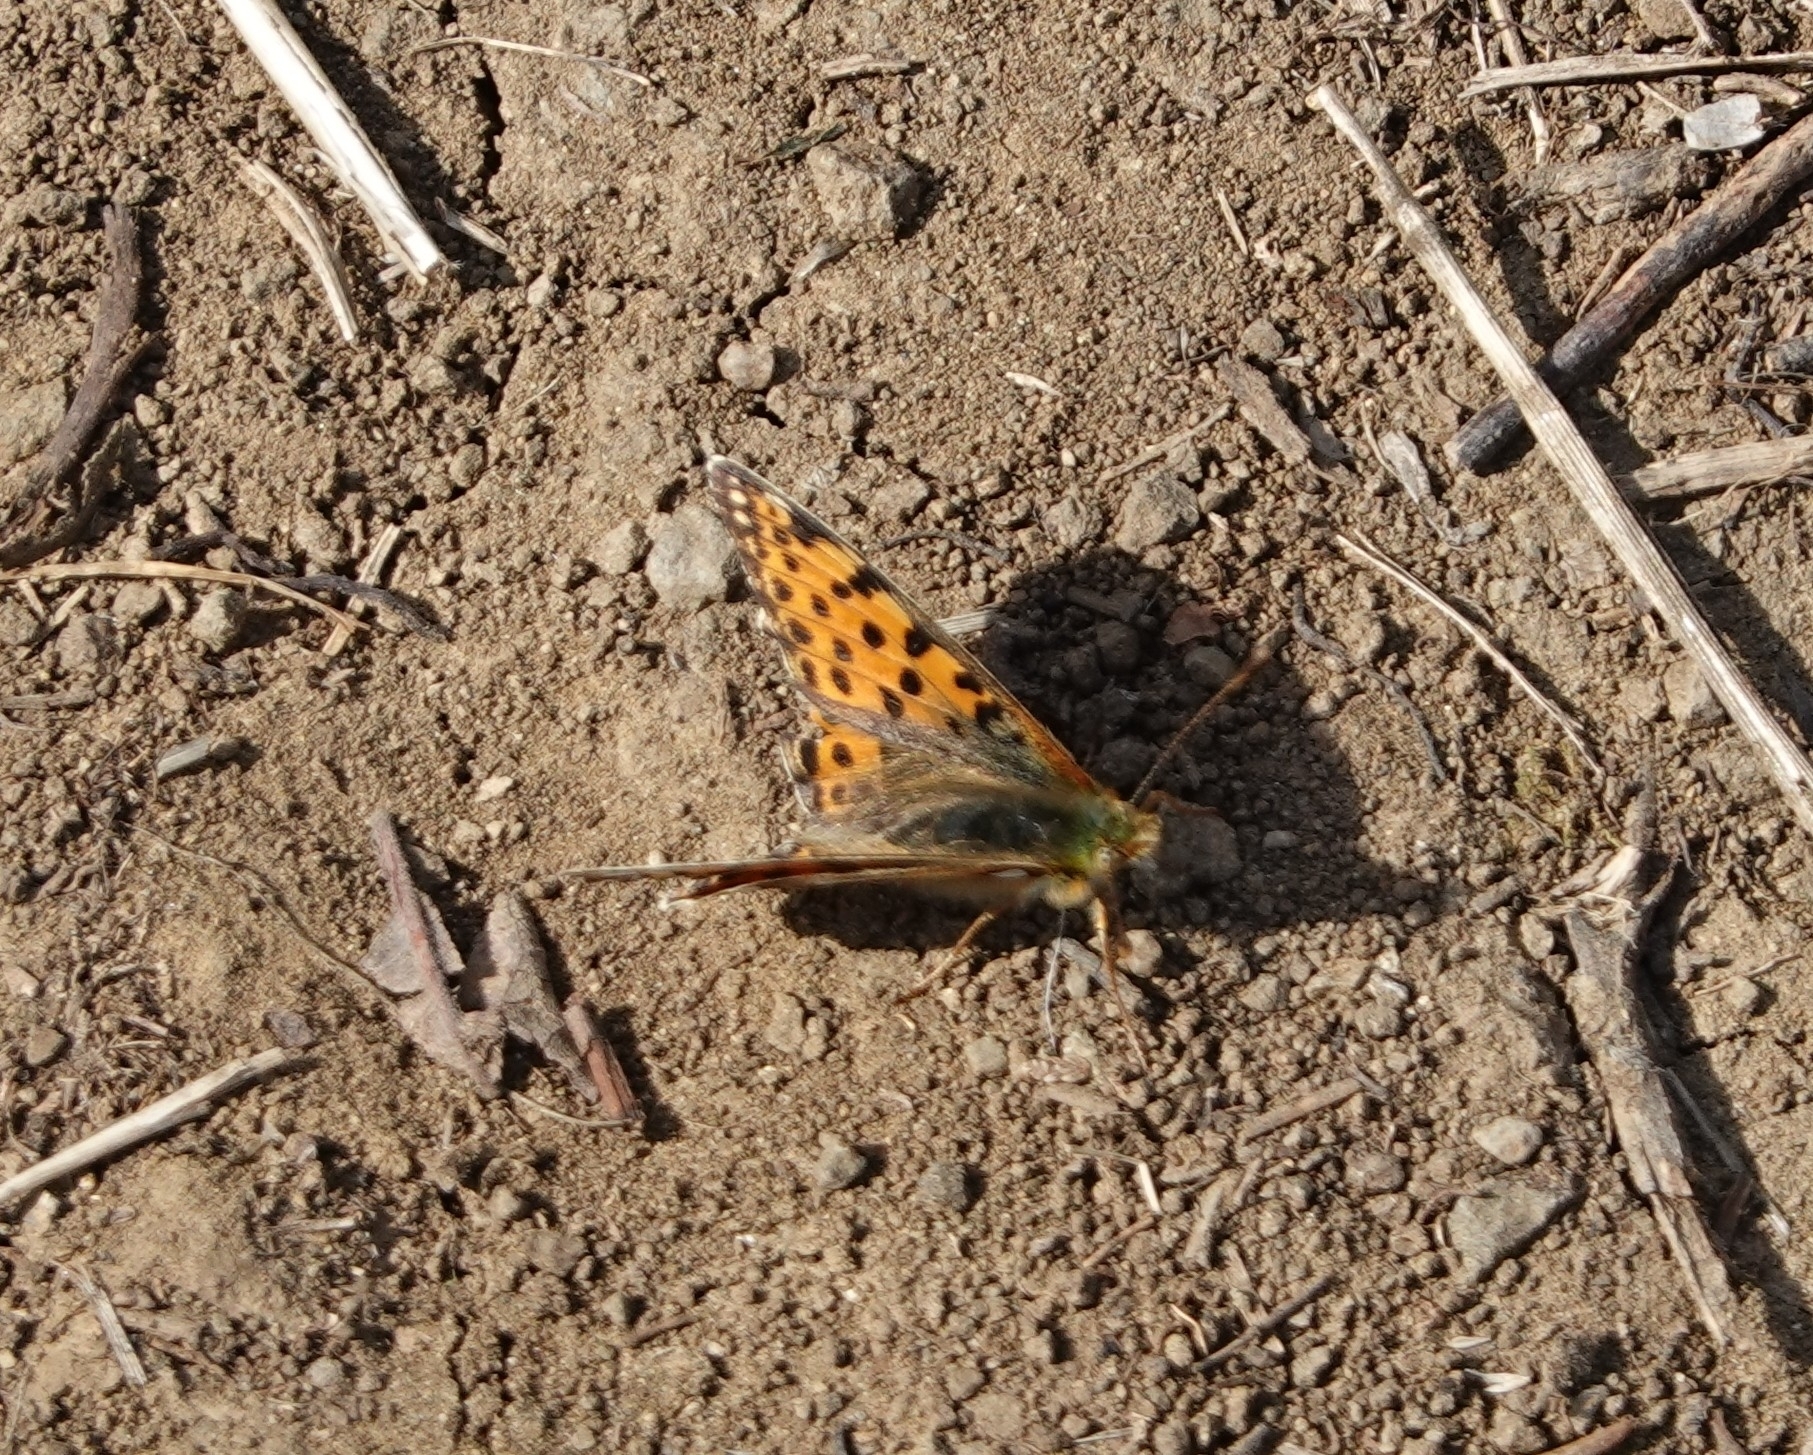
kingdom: Animalia
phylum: Arthropoda
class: Insecta
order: Lepidoptera
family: Nymphalidae
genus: Issoria
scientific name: Issoria lathonia
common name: Queen of spain fritillary
